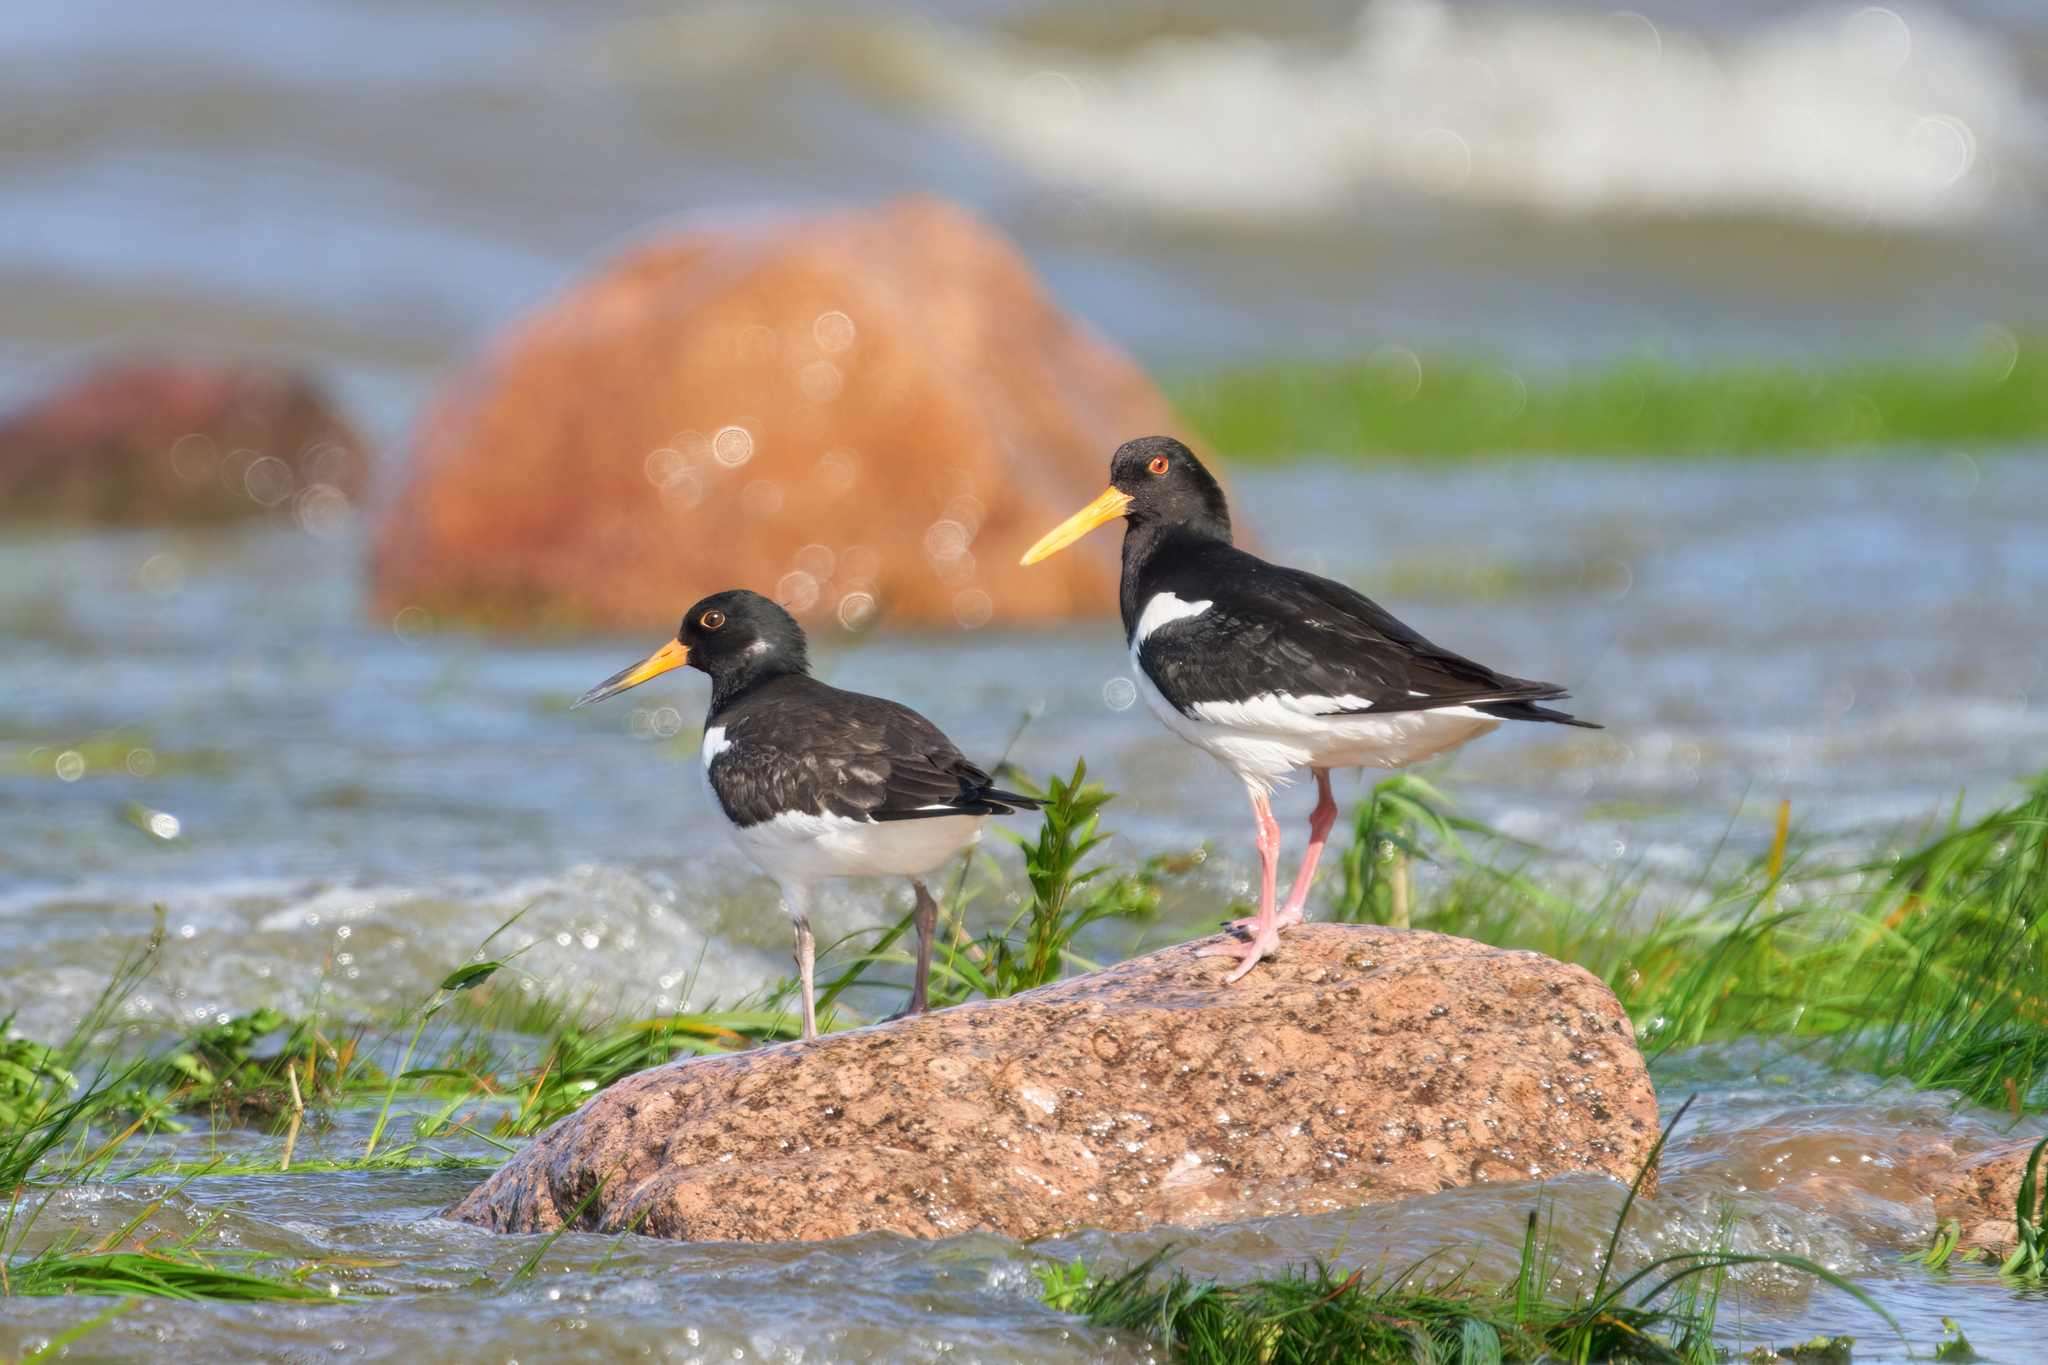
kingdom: Animalia
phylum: Chordata
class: Aves
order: Charadriiformes
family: Haematopodidae
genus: Haematopus
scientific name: Haematopus ostralegus
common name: Eurasian oystercatcher
